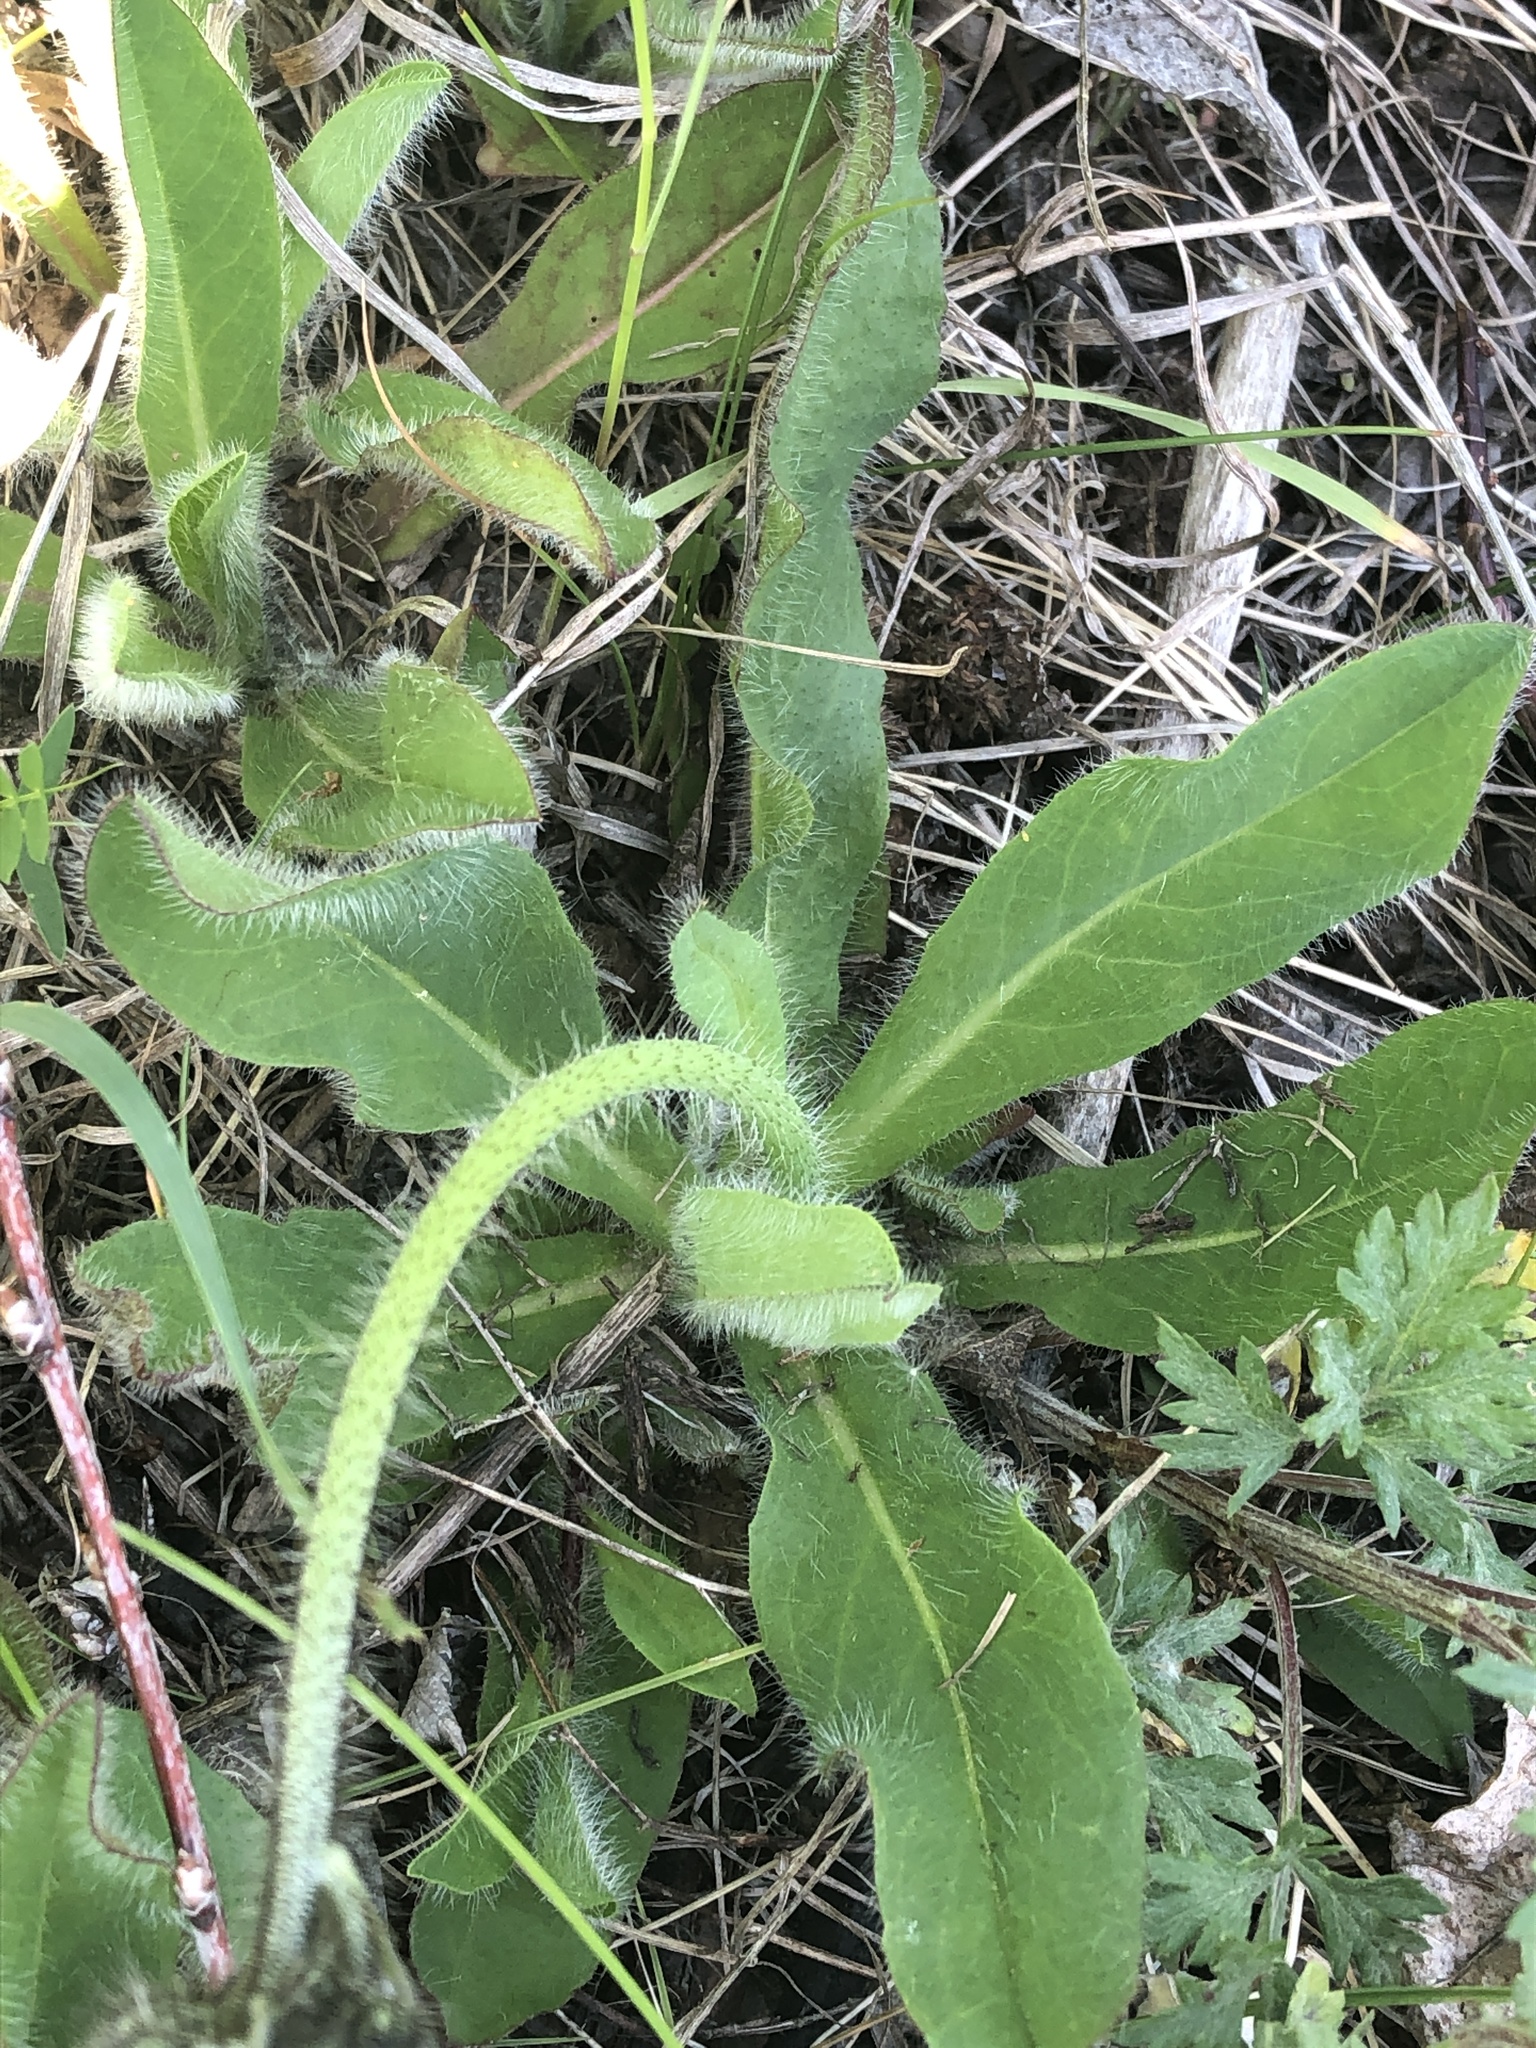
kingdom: Plantae
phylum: Tracheophyta
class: Magnoliopsida
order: Asterales
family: Asteraceae
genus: Pilosella
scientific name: Pilosella aurantiaca
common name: Fox-and-cubs
